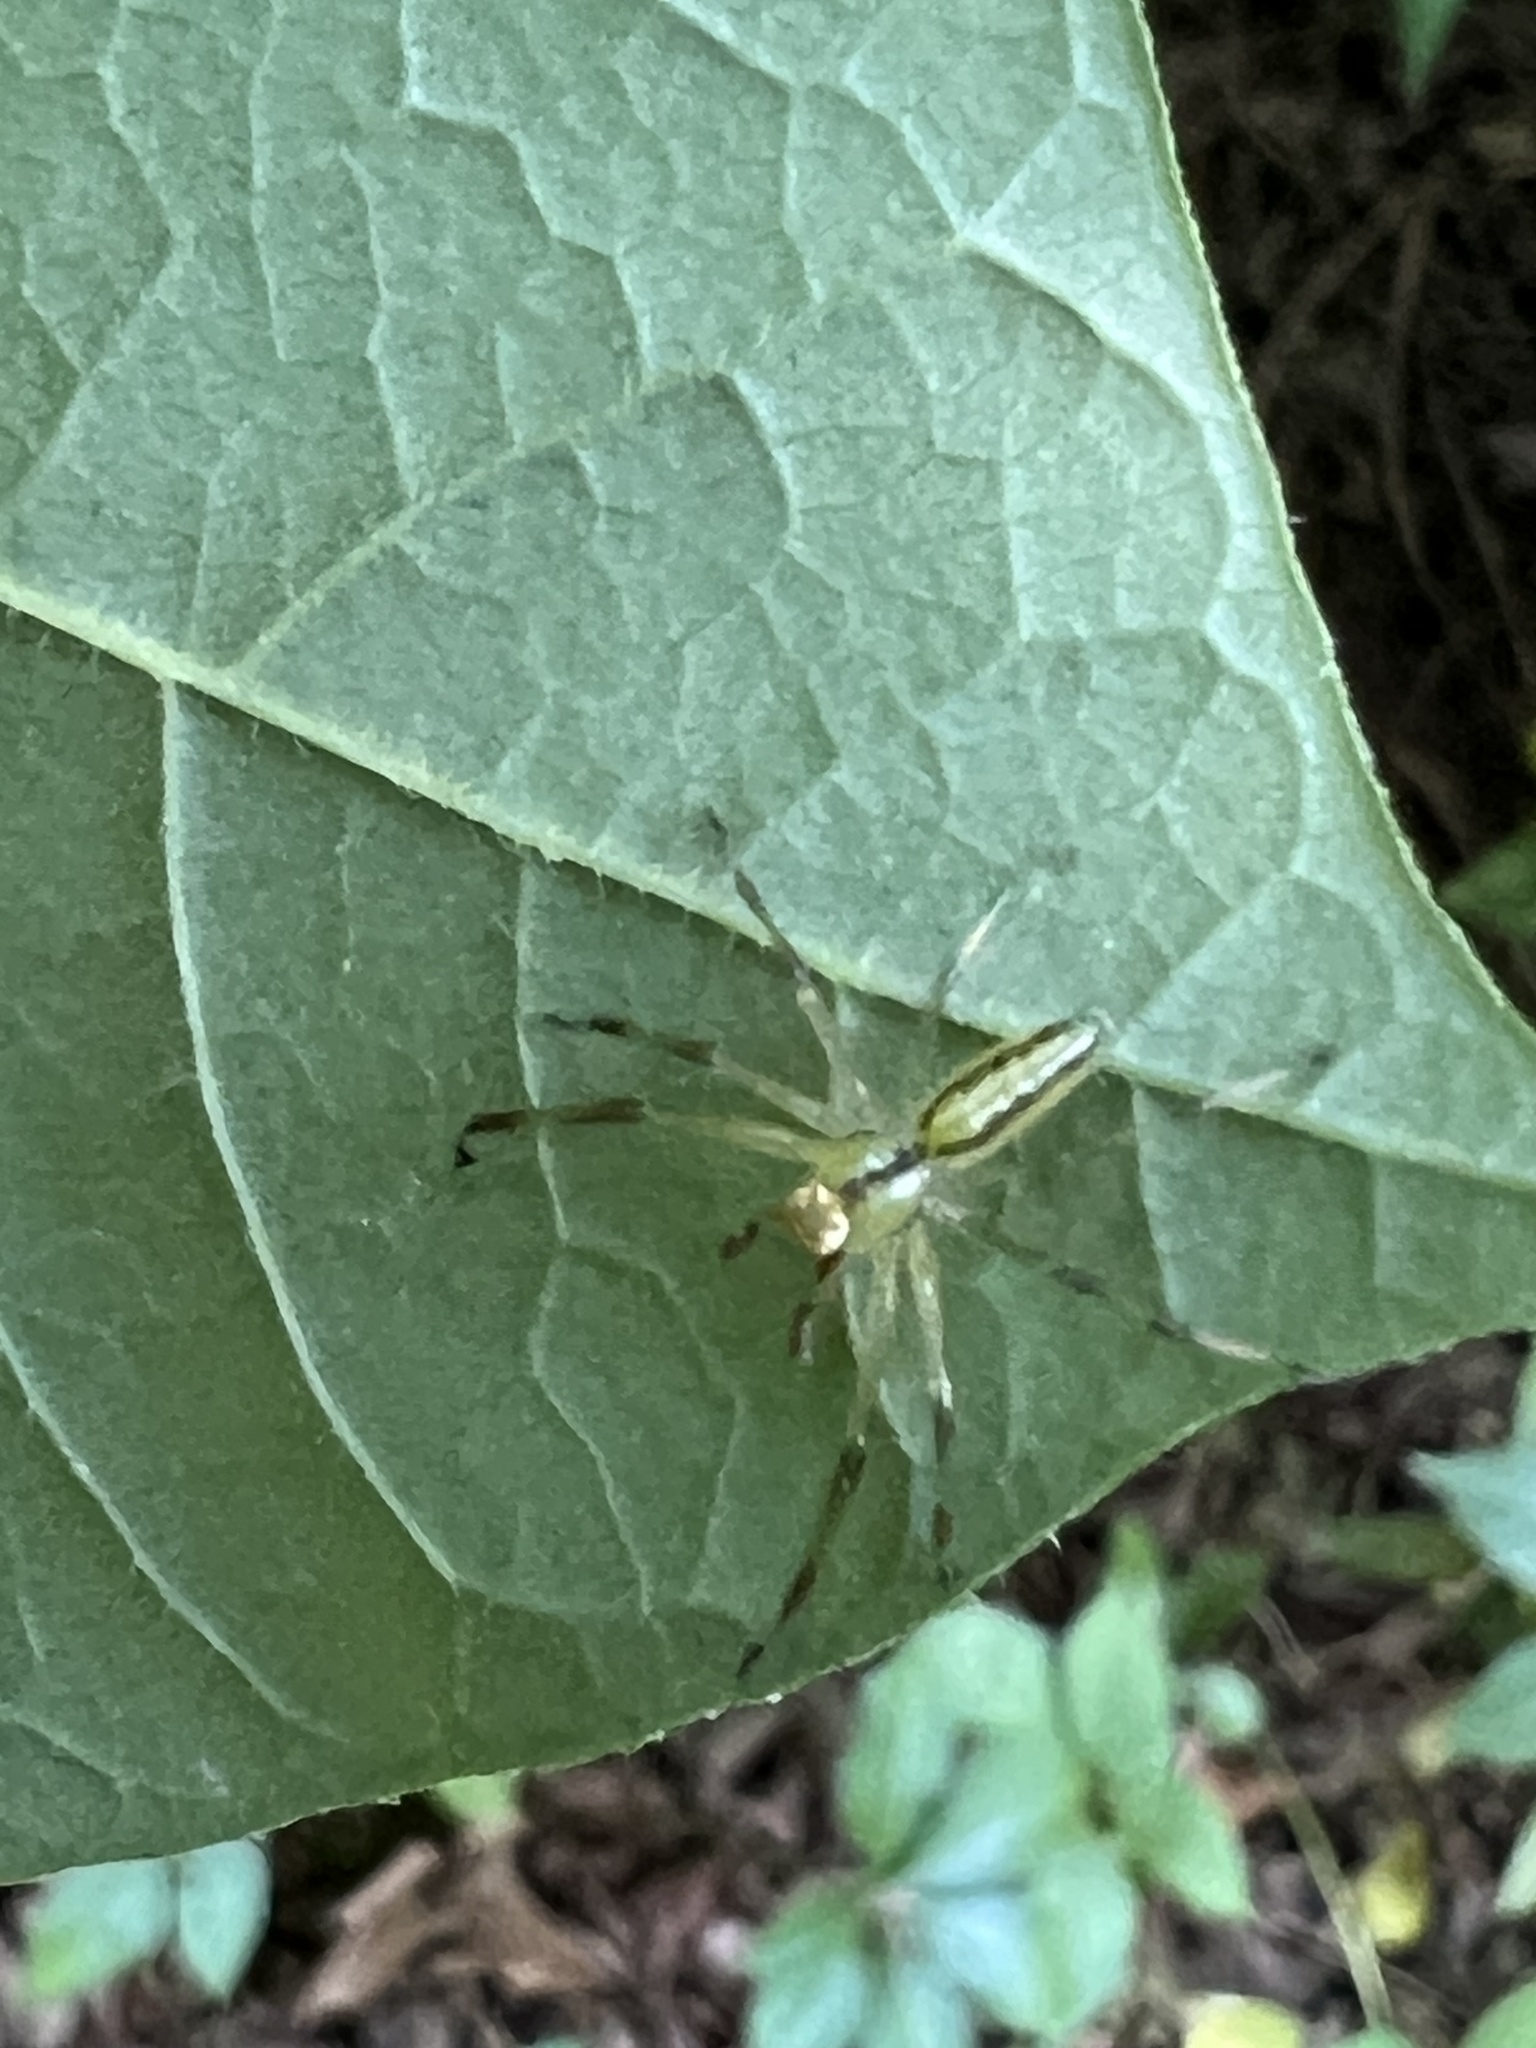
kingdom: Animalia
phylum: Arthropoda
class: Arachnida
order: Araneae
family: Salticidae
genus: Lyssomanes
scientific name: Lyssomanes viridis
